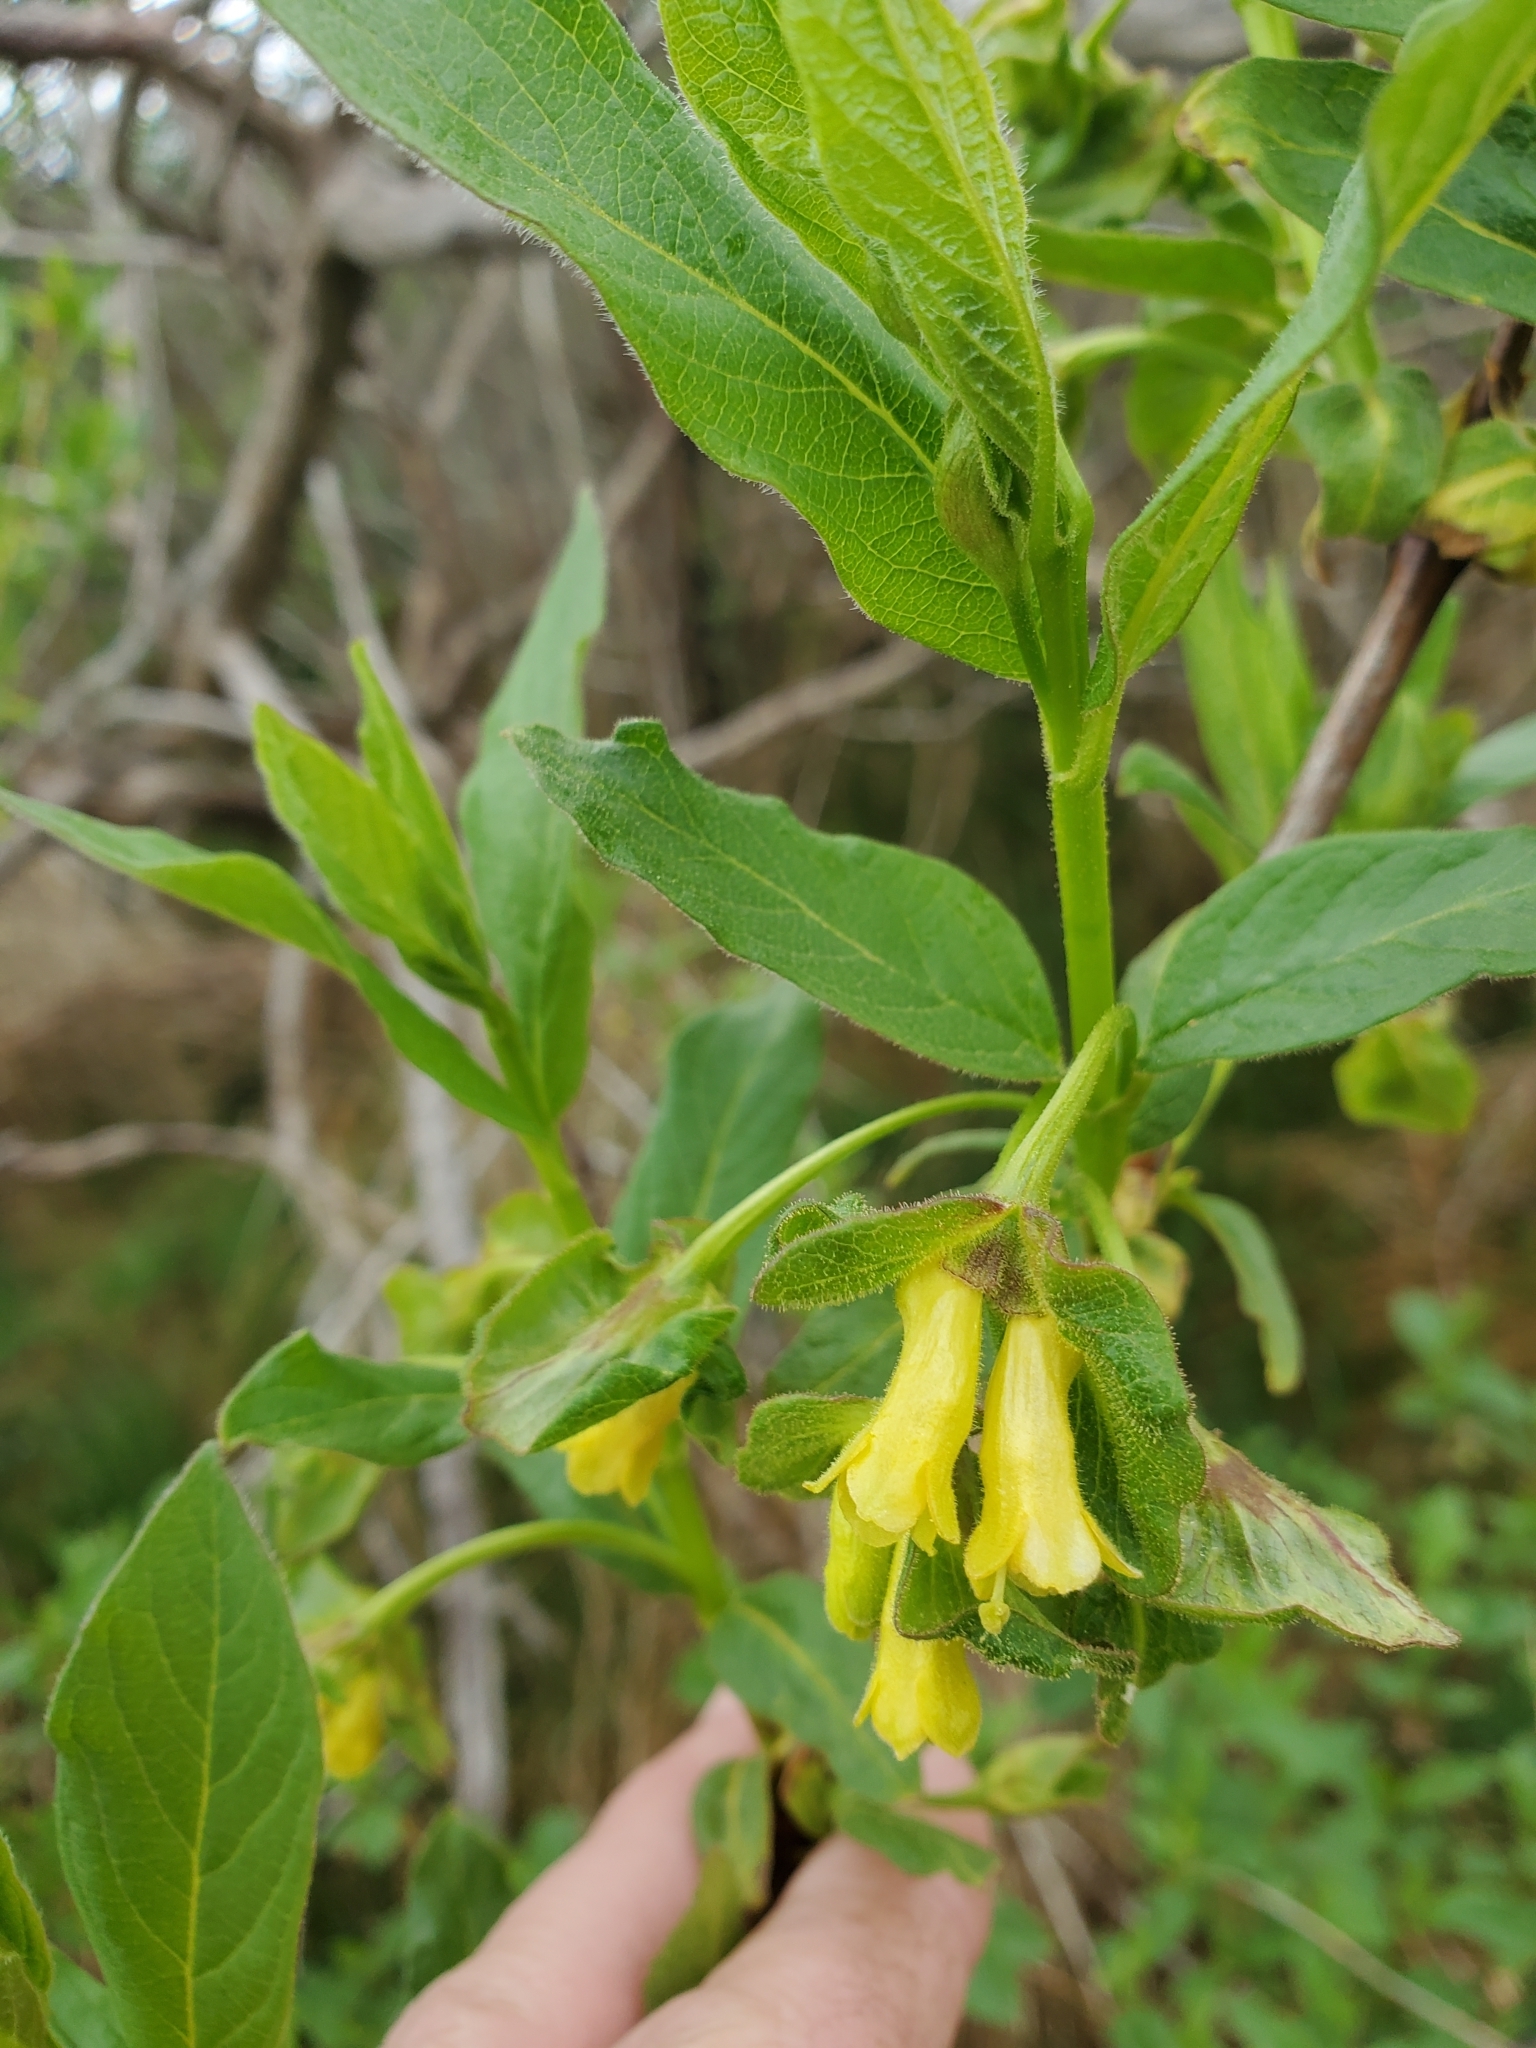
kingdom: Plantae
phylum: Tracheophyta
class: Magnoliopsida
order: Dipsacales
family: Caprifoliaceae
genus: Lonicera
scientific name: Lonicera involucrata
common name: Californian honeysuckle
